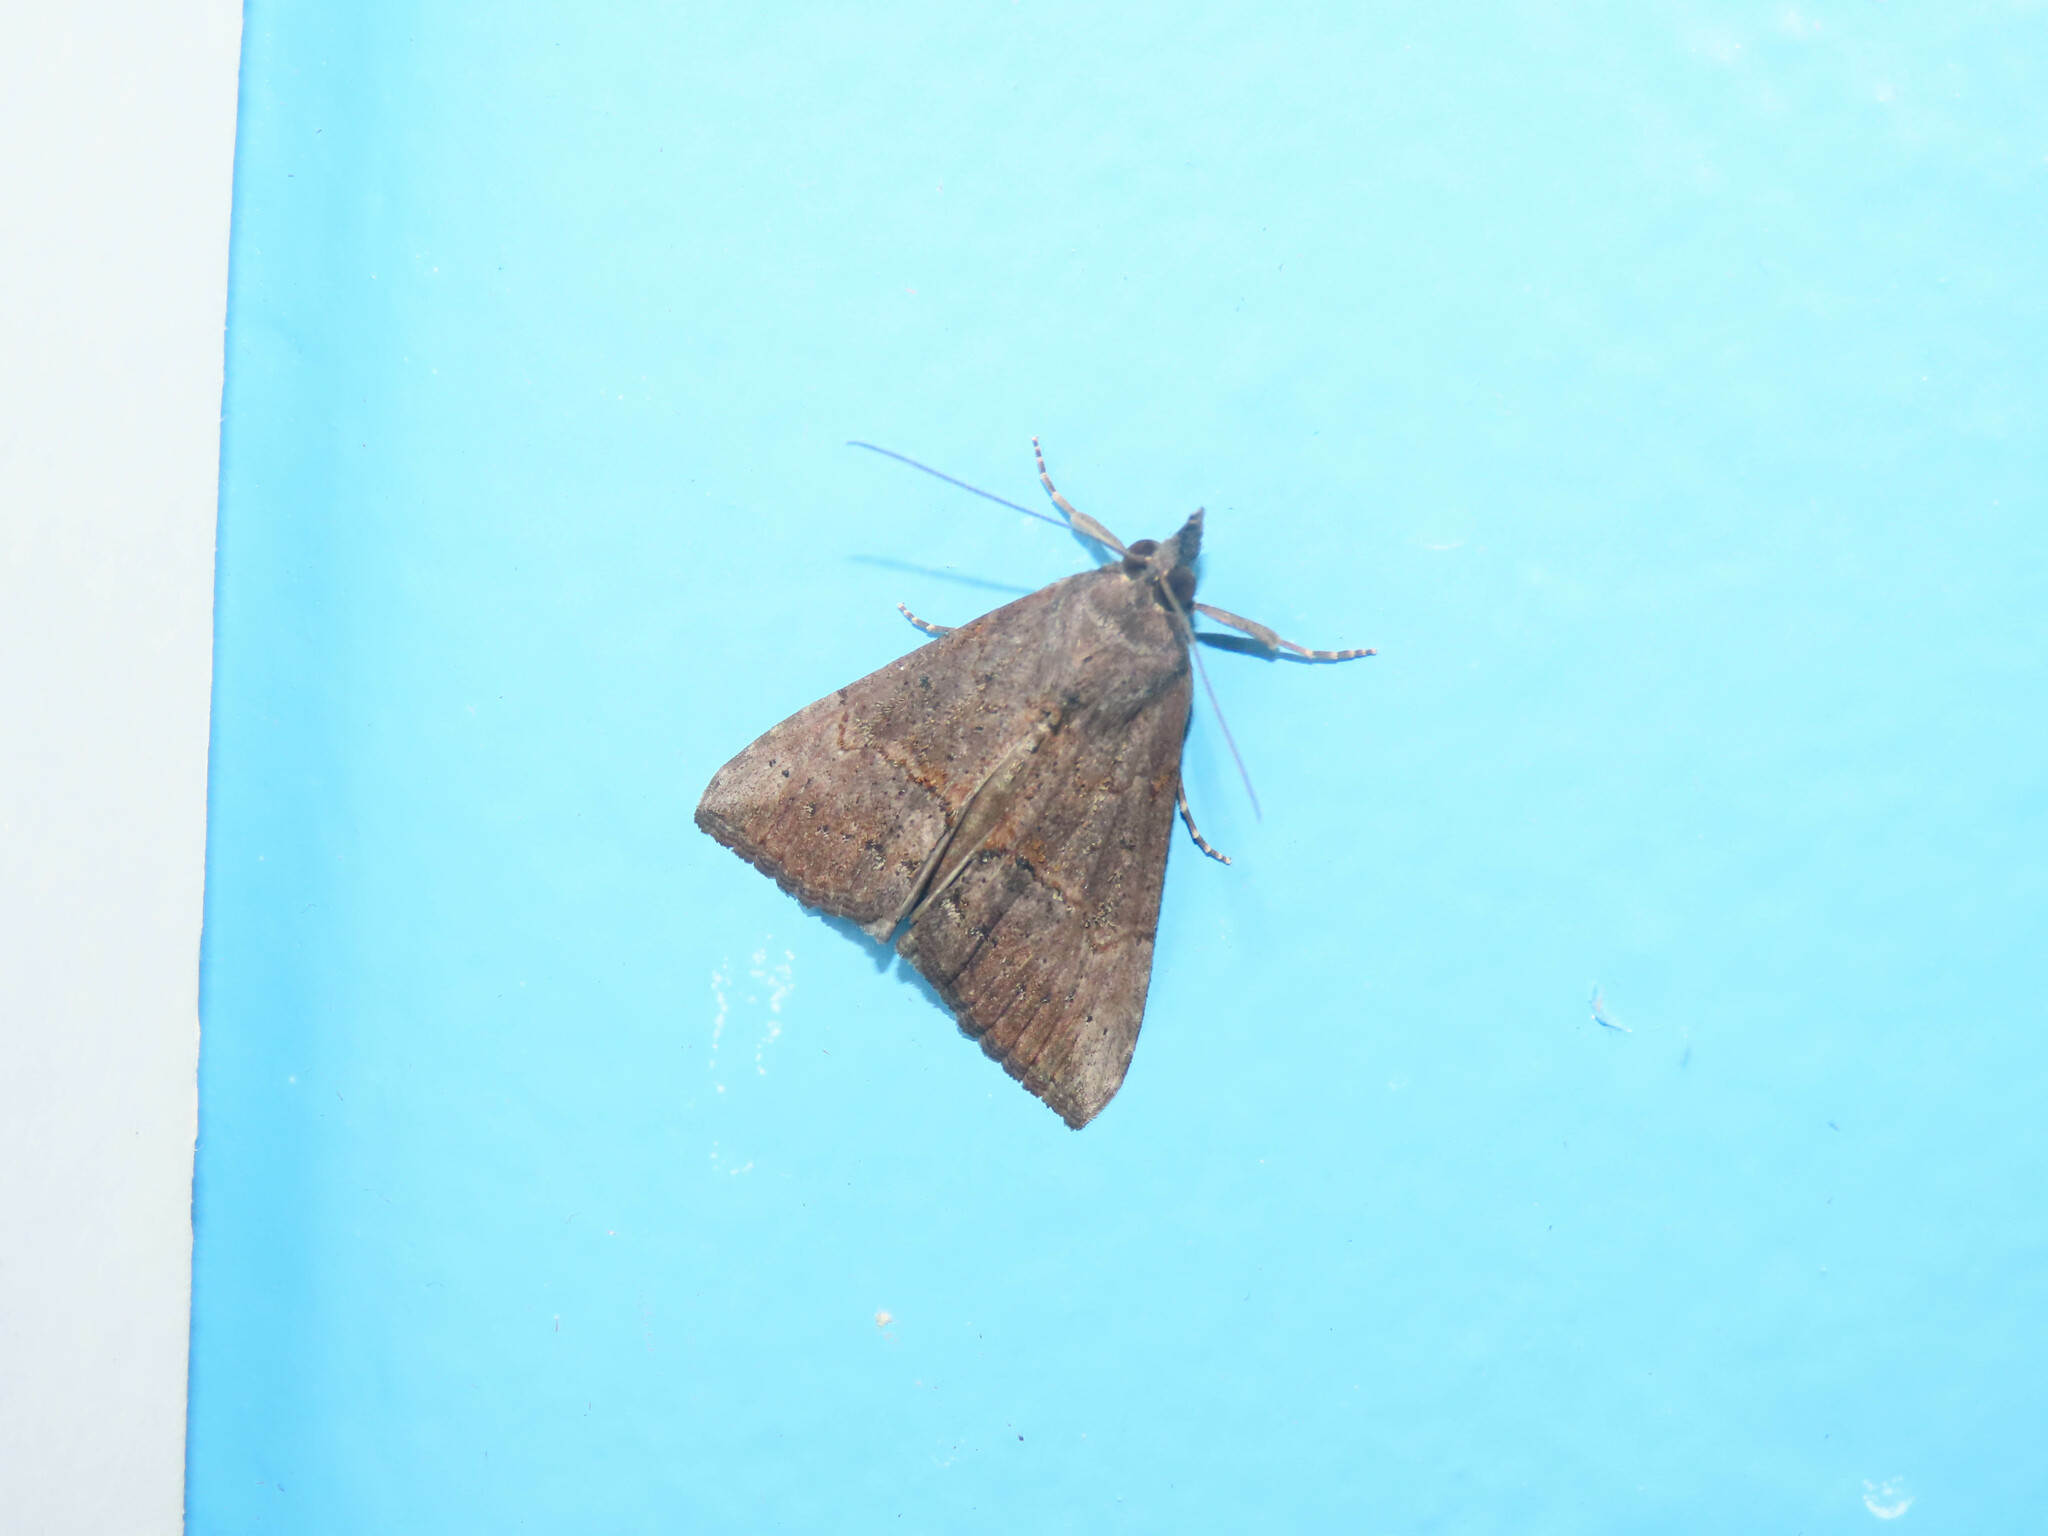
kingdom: Animalia
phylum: Arthropoda
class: Insecta
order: Lepidoptera
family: Erebidae
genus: Hypena
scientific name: Hypena scabra
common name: Green cloverworm
